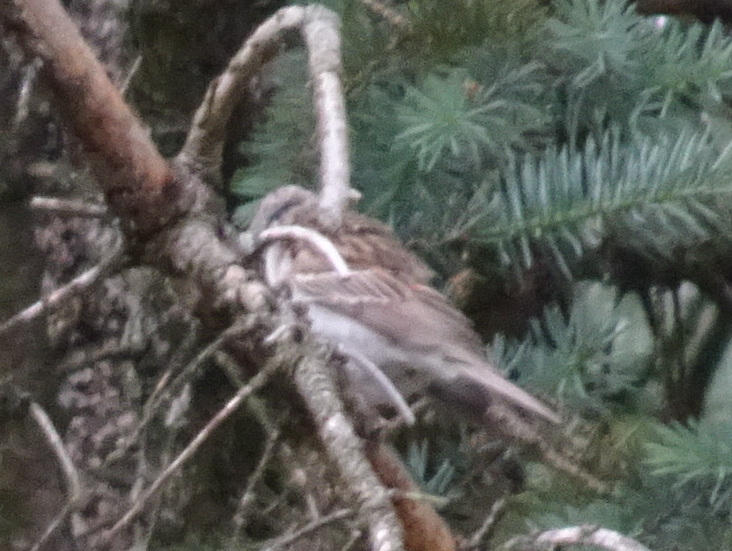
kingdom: Animalia
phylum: Chordata
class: Aves
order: Passeriformes
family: Passerellidae
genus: Spizella
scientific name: Spizella passerina
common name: Chipping sparrow
